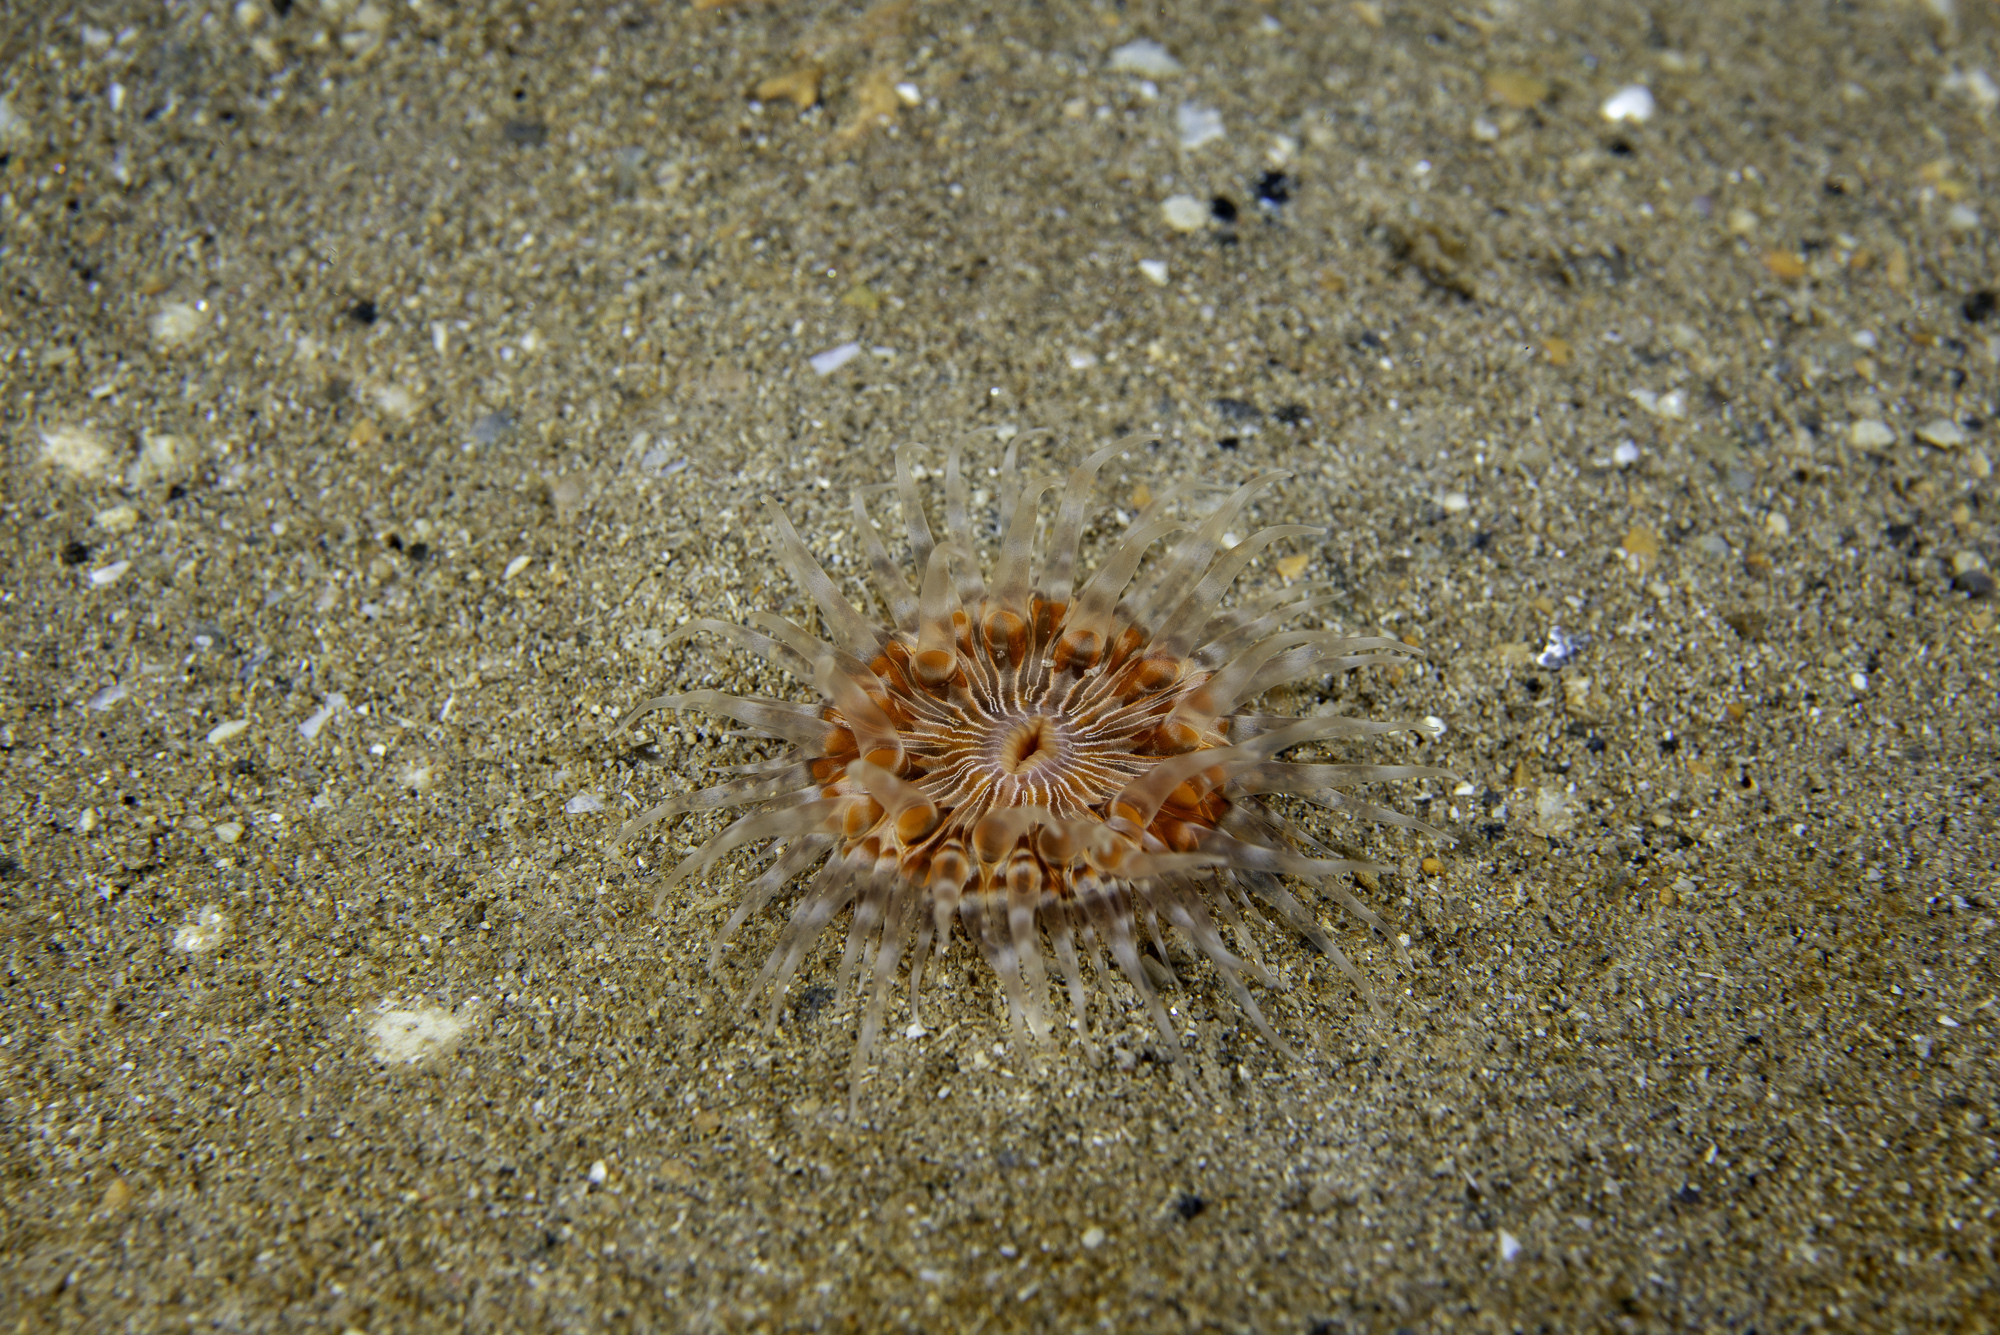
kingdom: Animalia
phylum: Cnidaria
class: Anthozoa
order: Actiniaria
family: Sagartiidae
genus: Sagartia
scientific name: Sagartia lacerata
